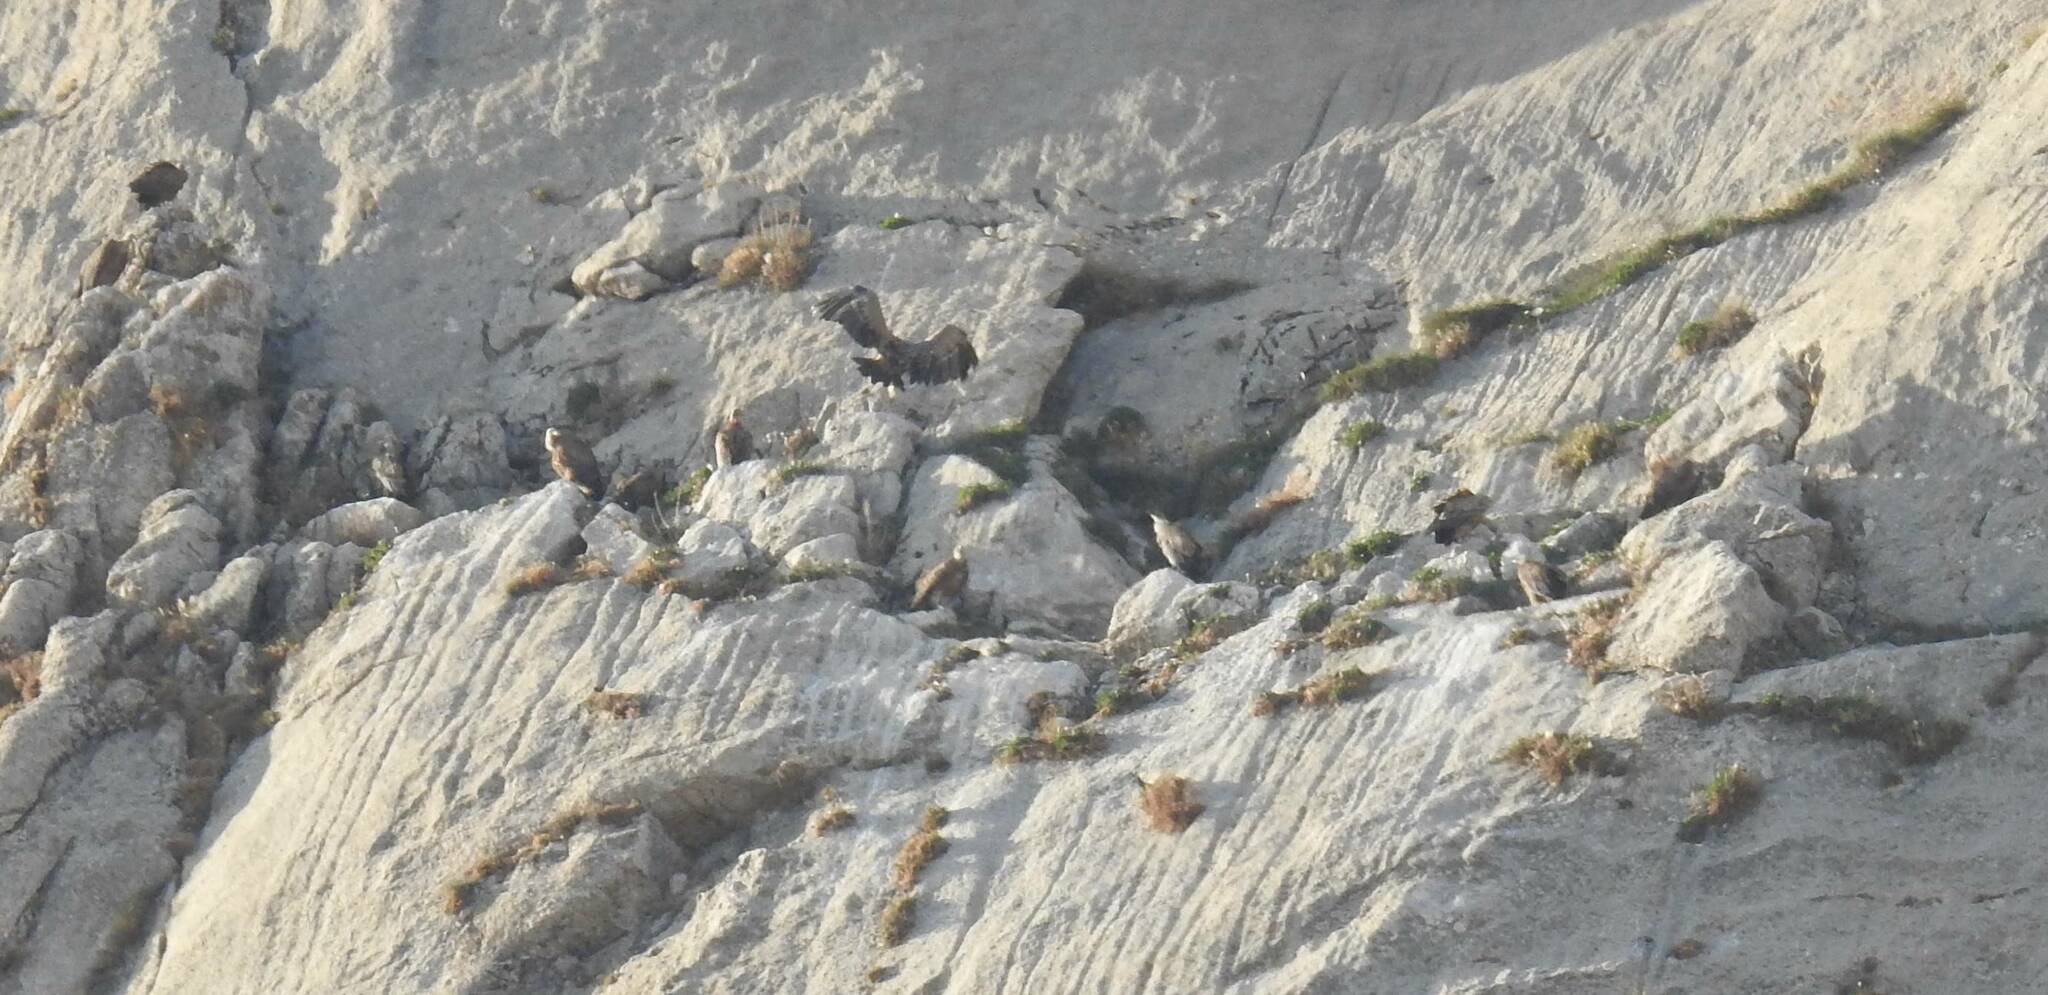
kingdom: Animalia
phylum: Chordata
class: Aves
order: Accipitriformes
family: Accipitridae
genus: Gyps
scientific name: Gyps fulvus
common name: Griffon vulture
